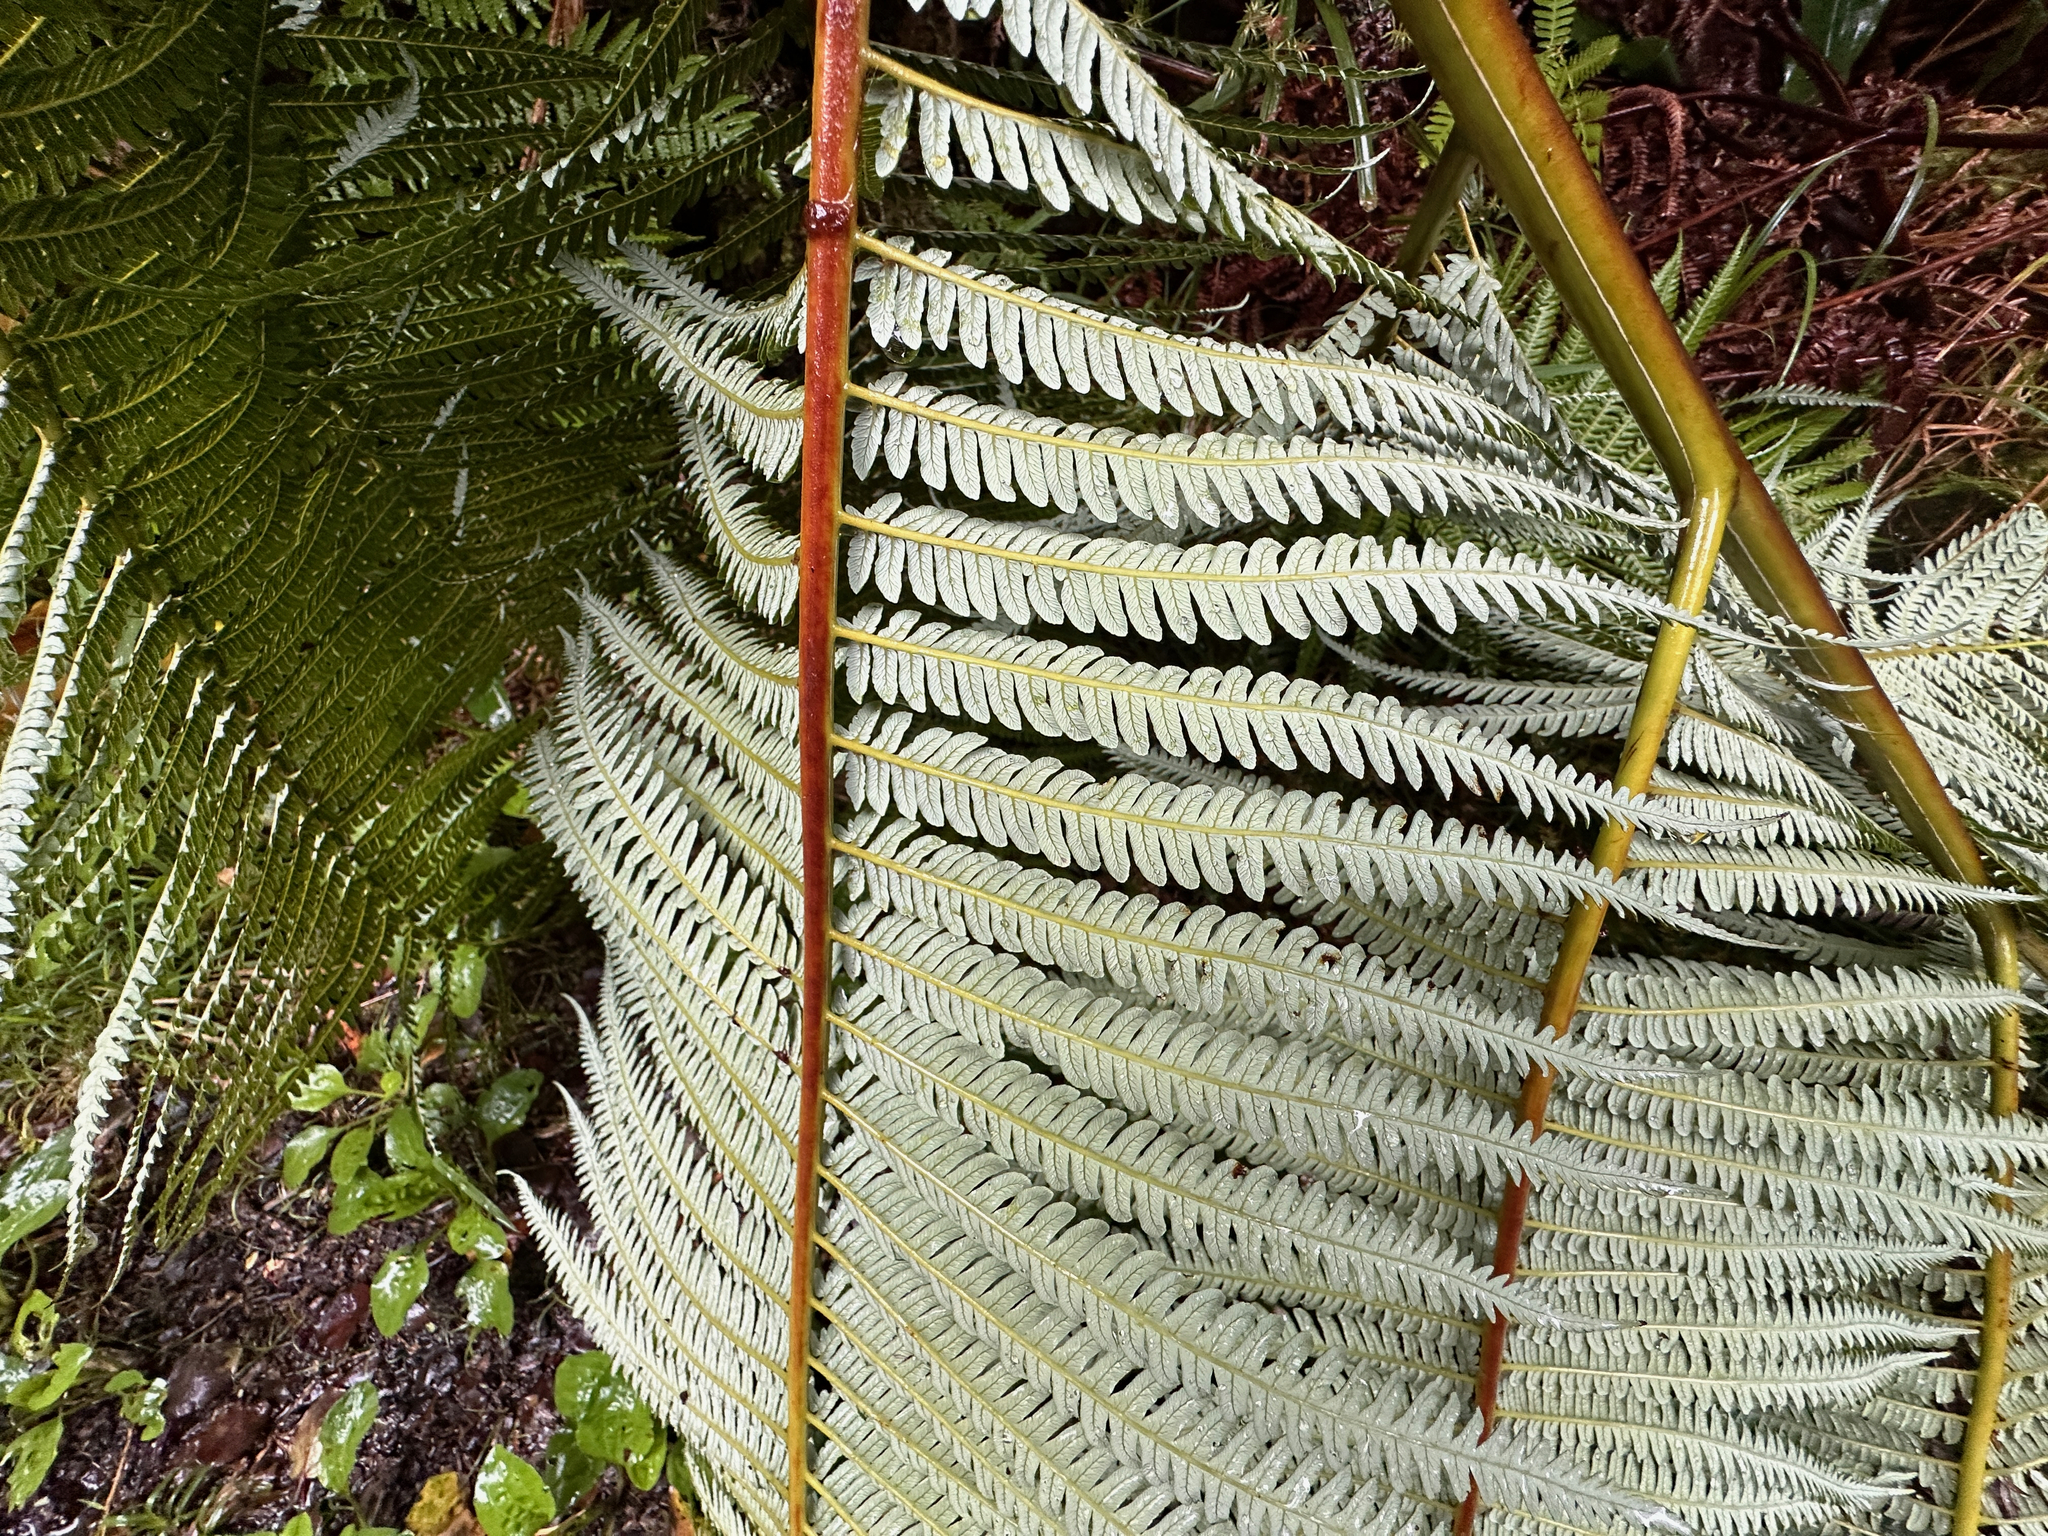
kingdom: Plantae
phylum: Tracheophyta
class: Polypodiopsida
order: Cyatheales
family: Cibotiaceae
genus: Cibotium
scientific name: Cibotium glaucum
